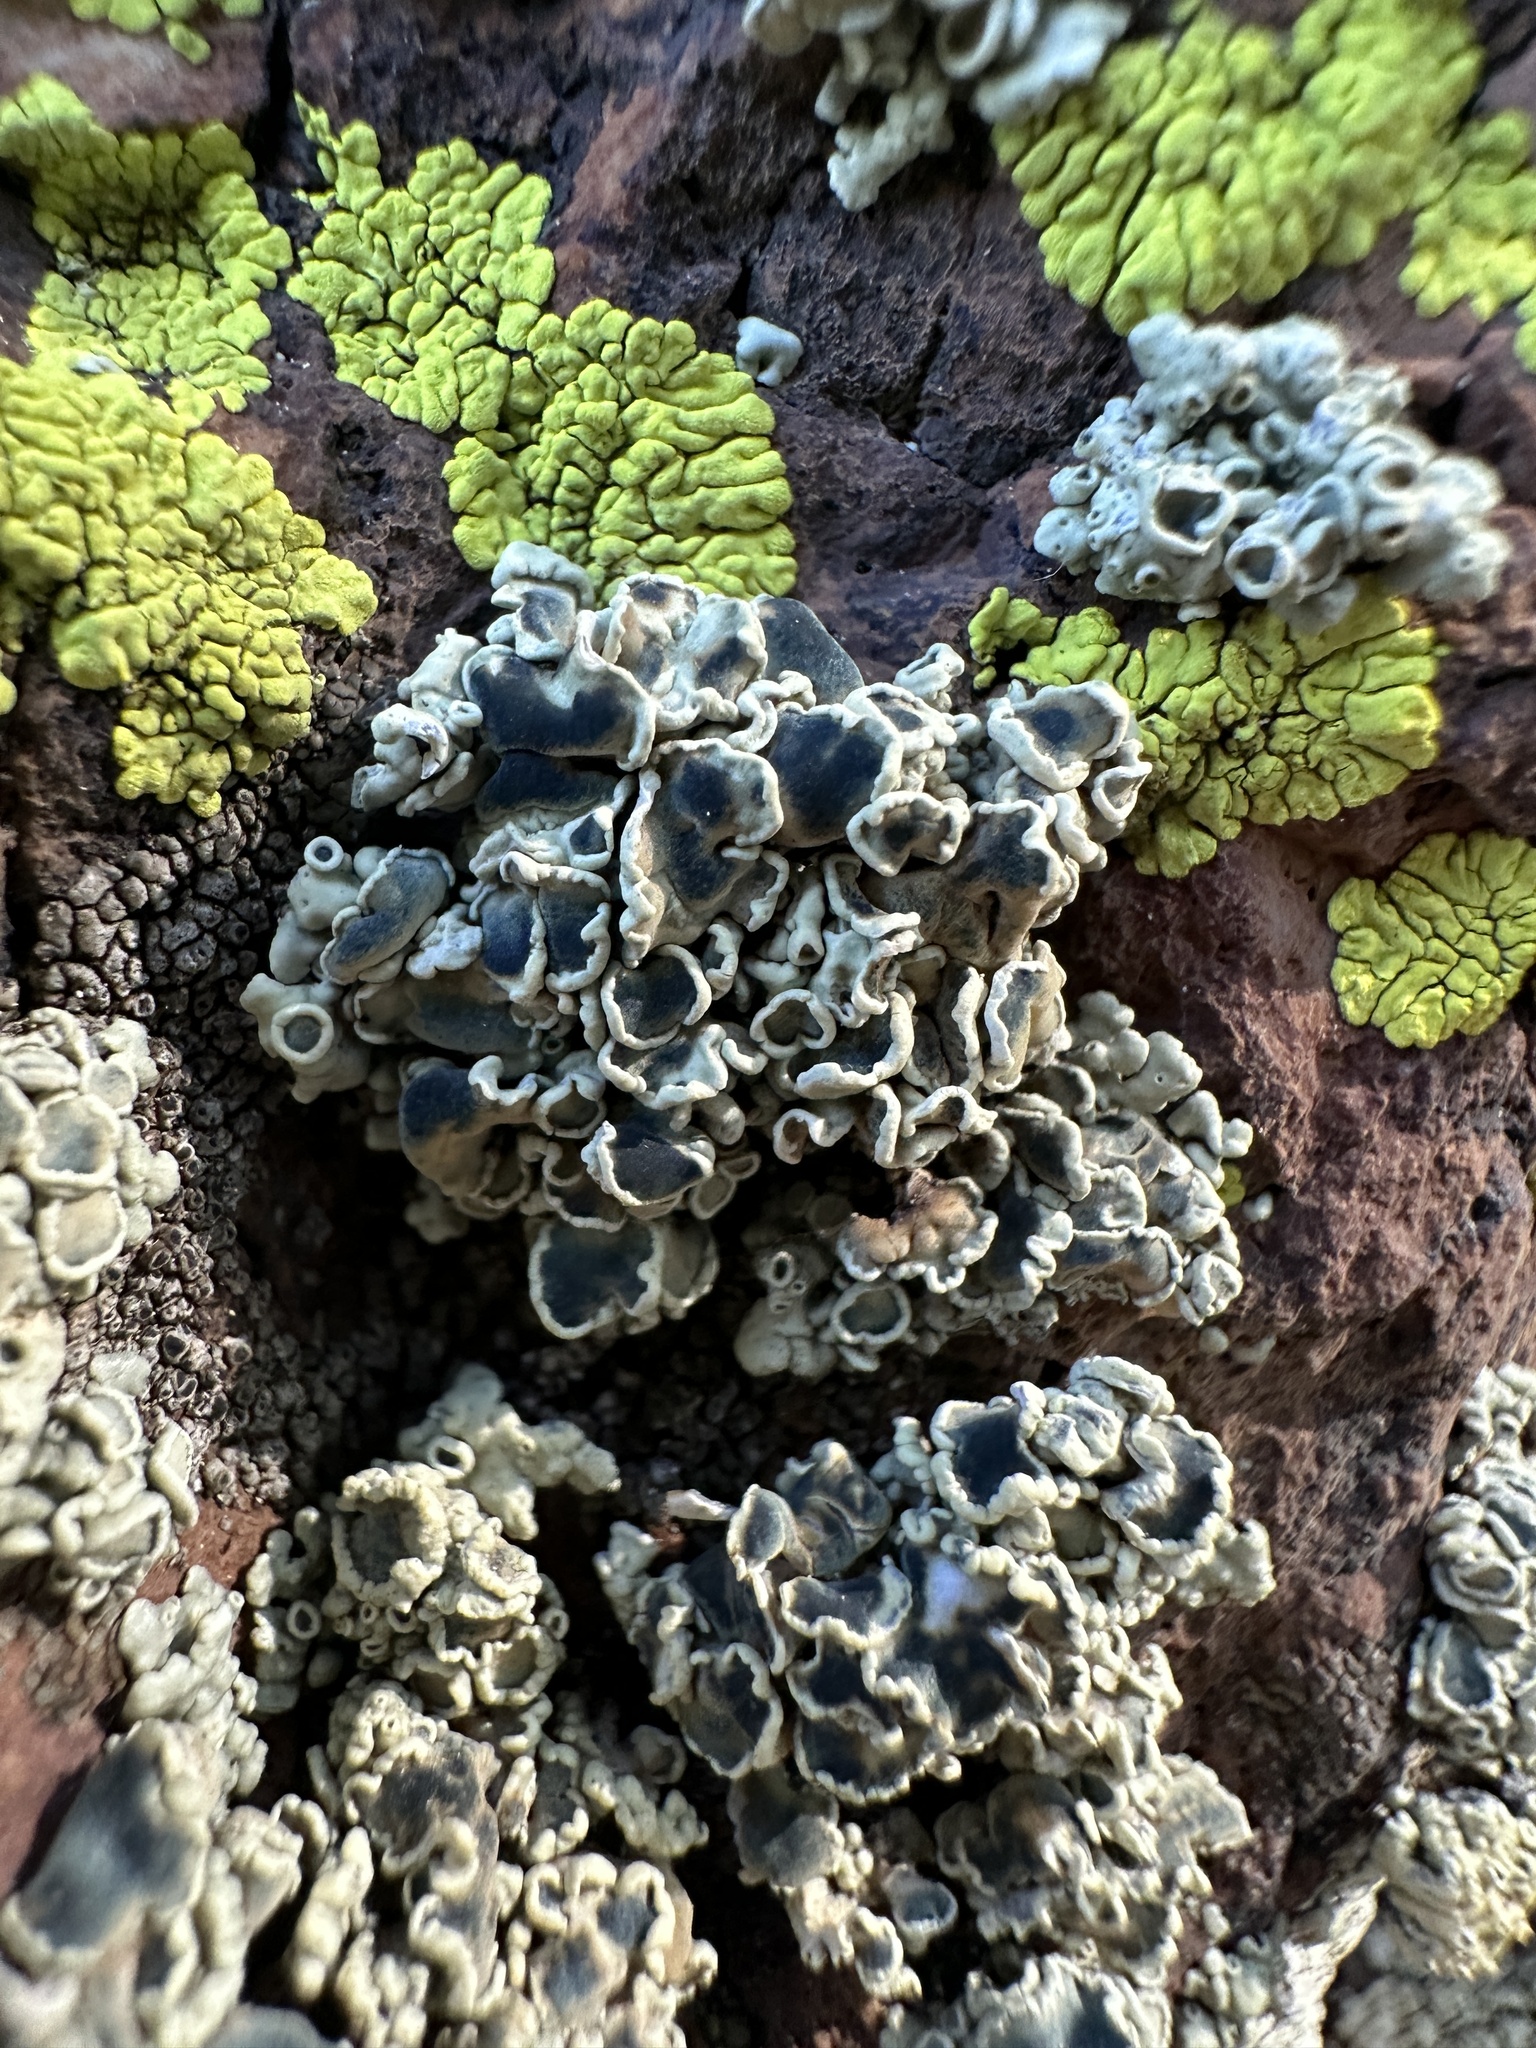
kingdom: Fungi
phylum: Ascomycota
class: Lecanoromycetes
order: Lecanorales
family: Lecanoraceae
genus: Rhizoplaca
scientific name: Rhizoplaca melanophthalma
